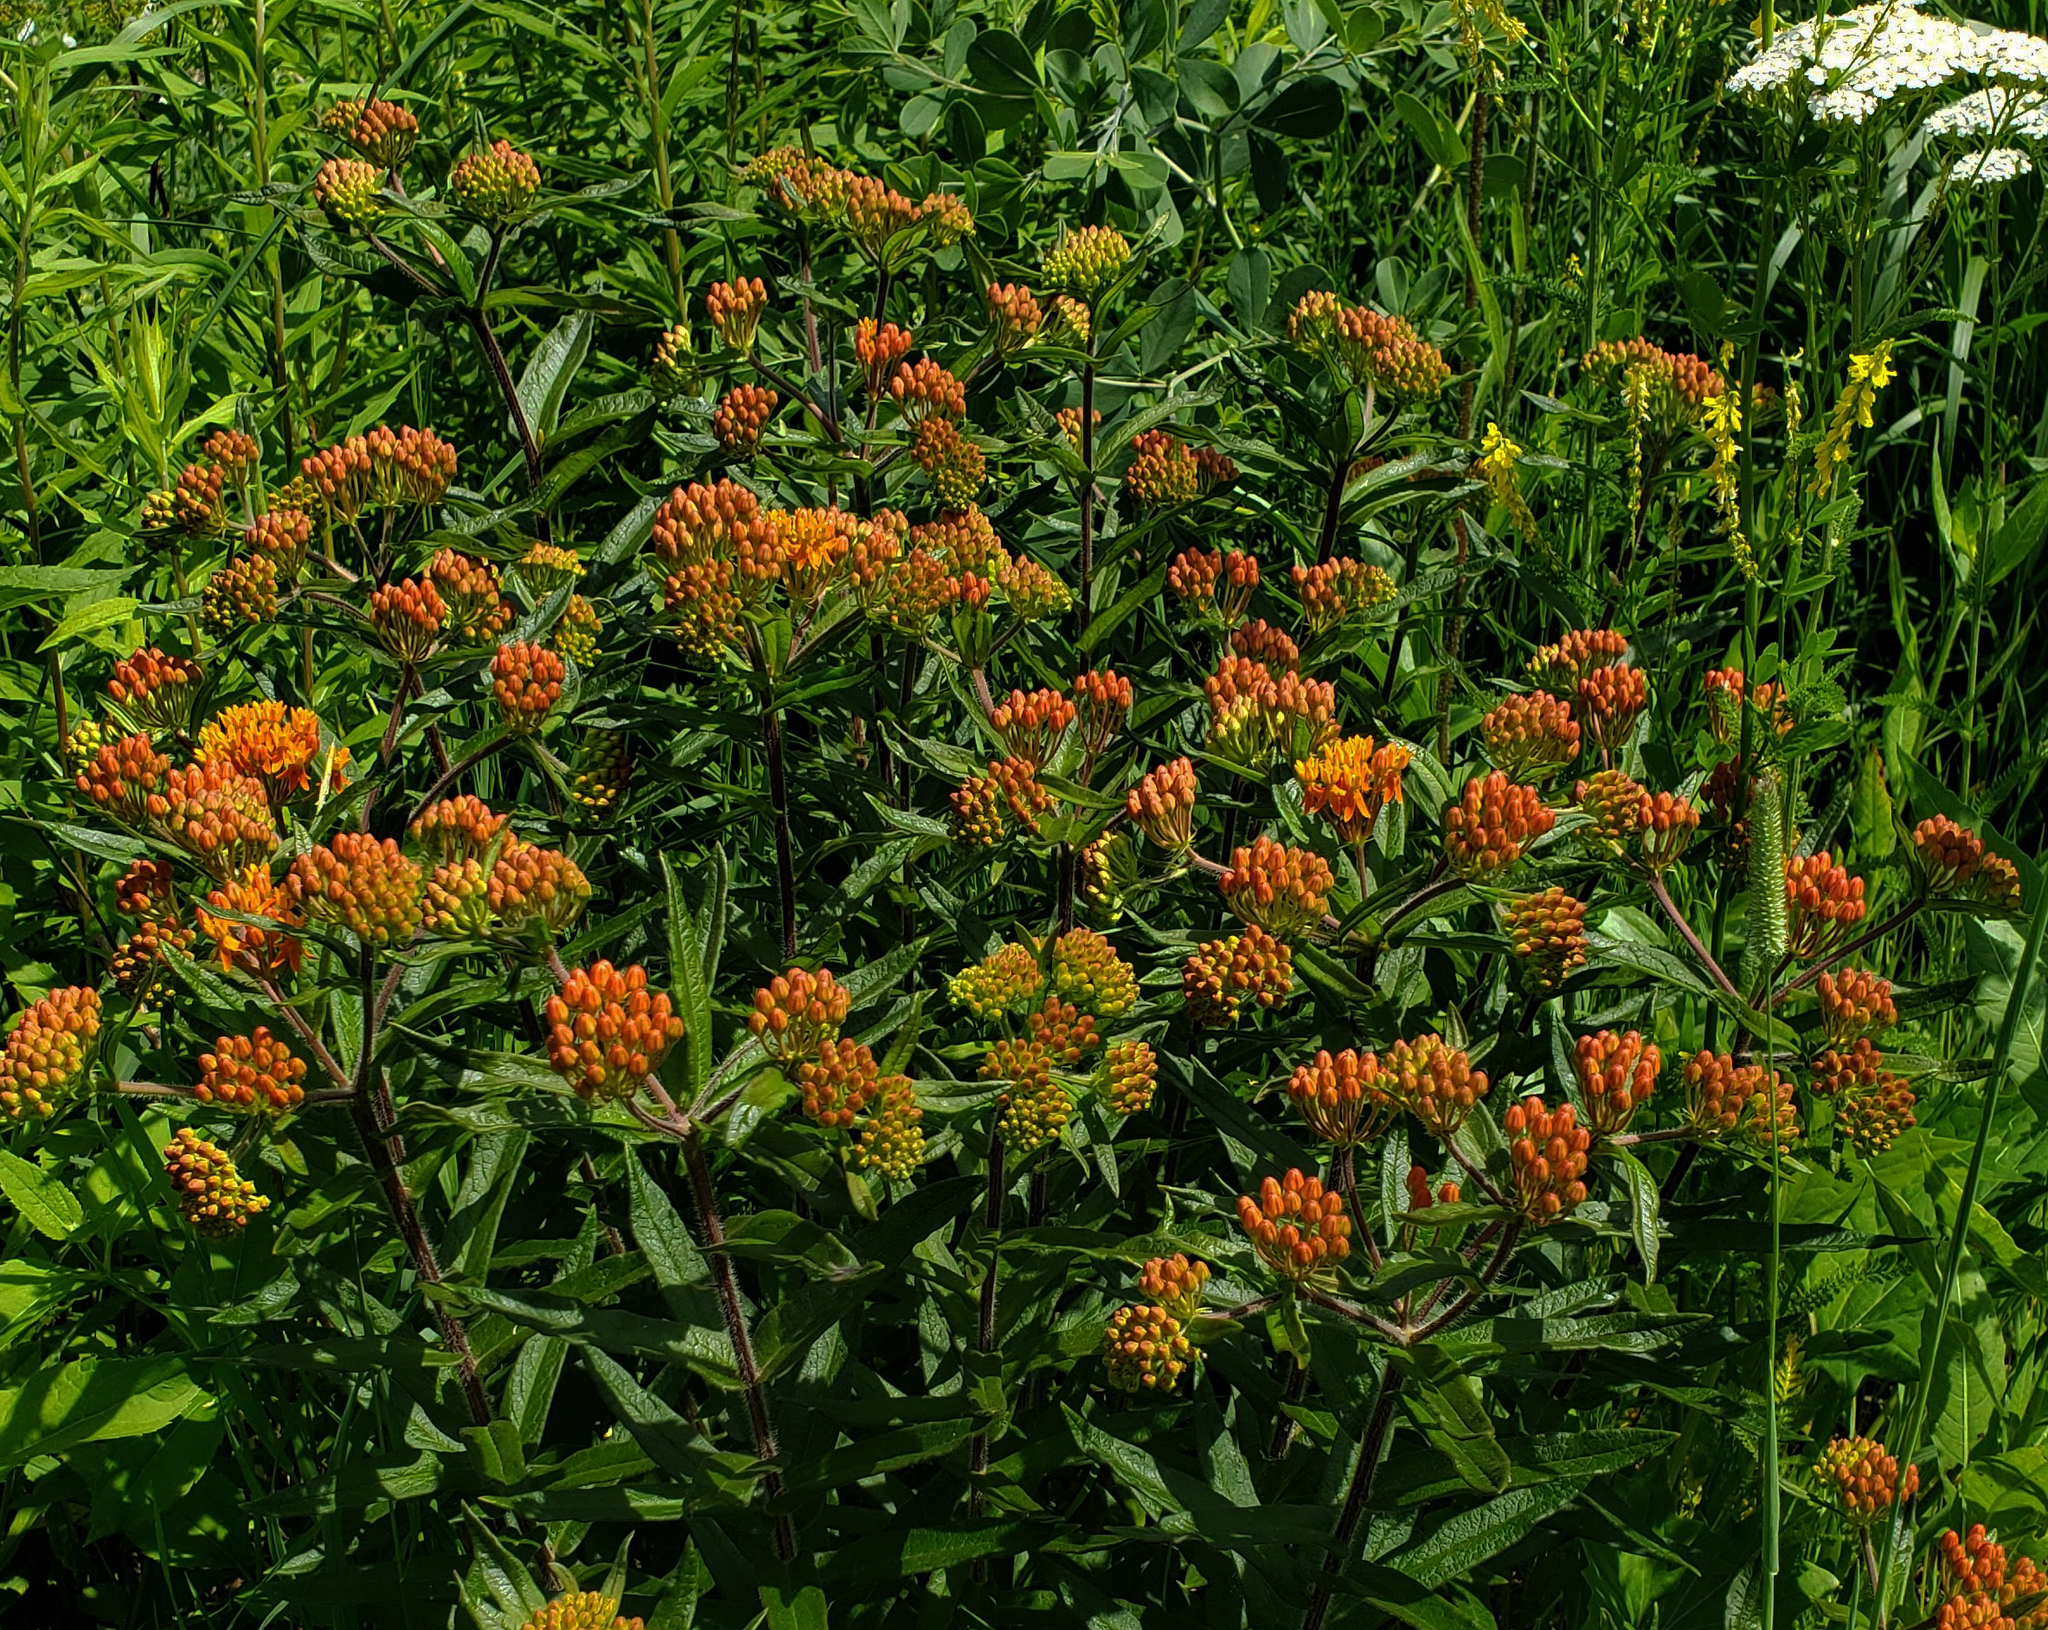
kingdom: Plantae
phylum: Tracheophyta
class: Magnoliopsida
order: Gentianales
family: Apocynaceae
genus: Asclepias
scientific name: Asclepias tuberosa
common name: Butterfly milkweed
